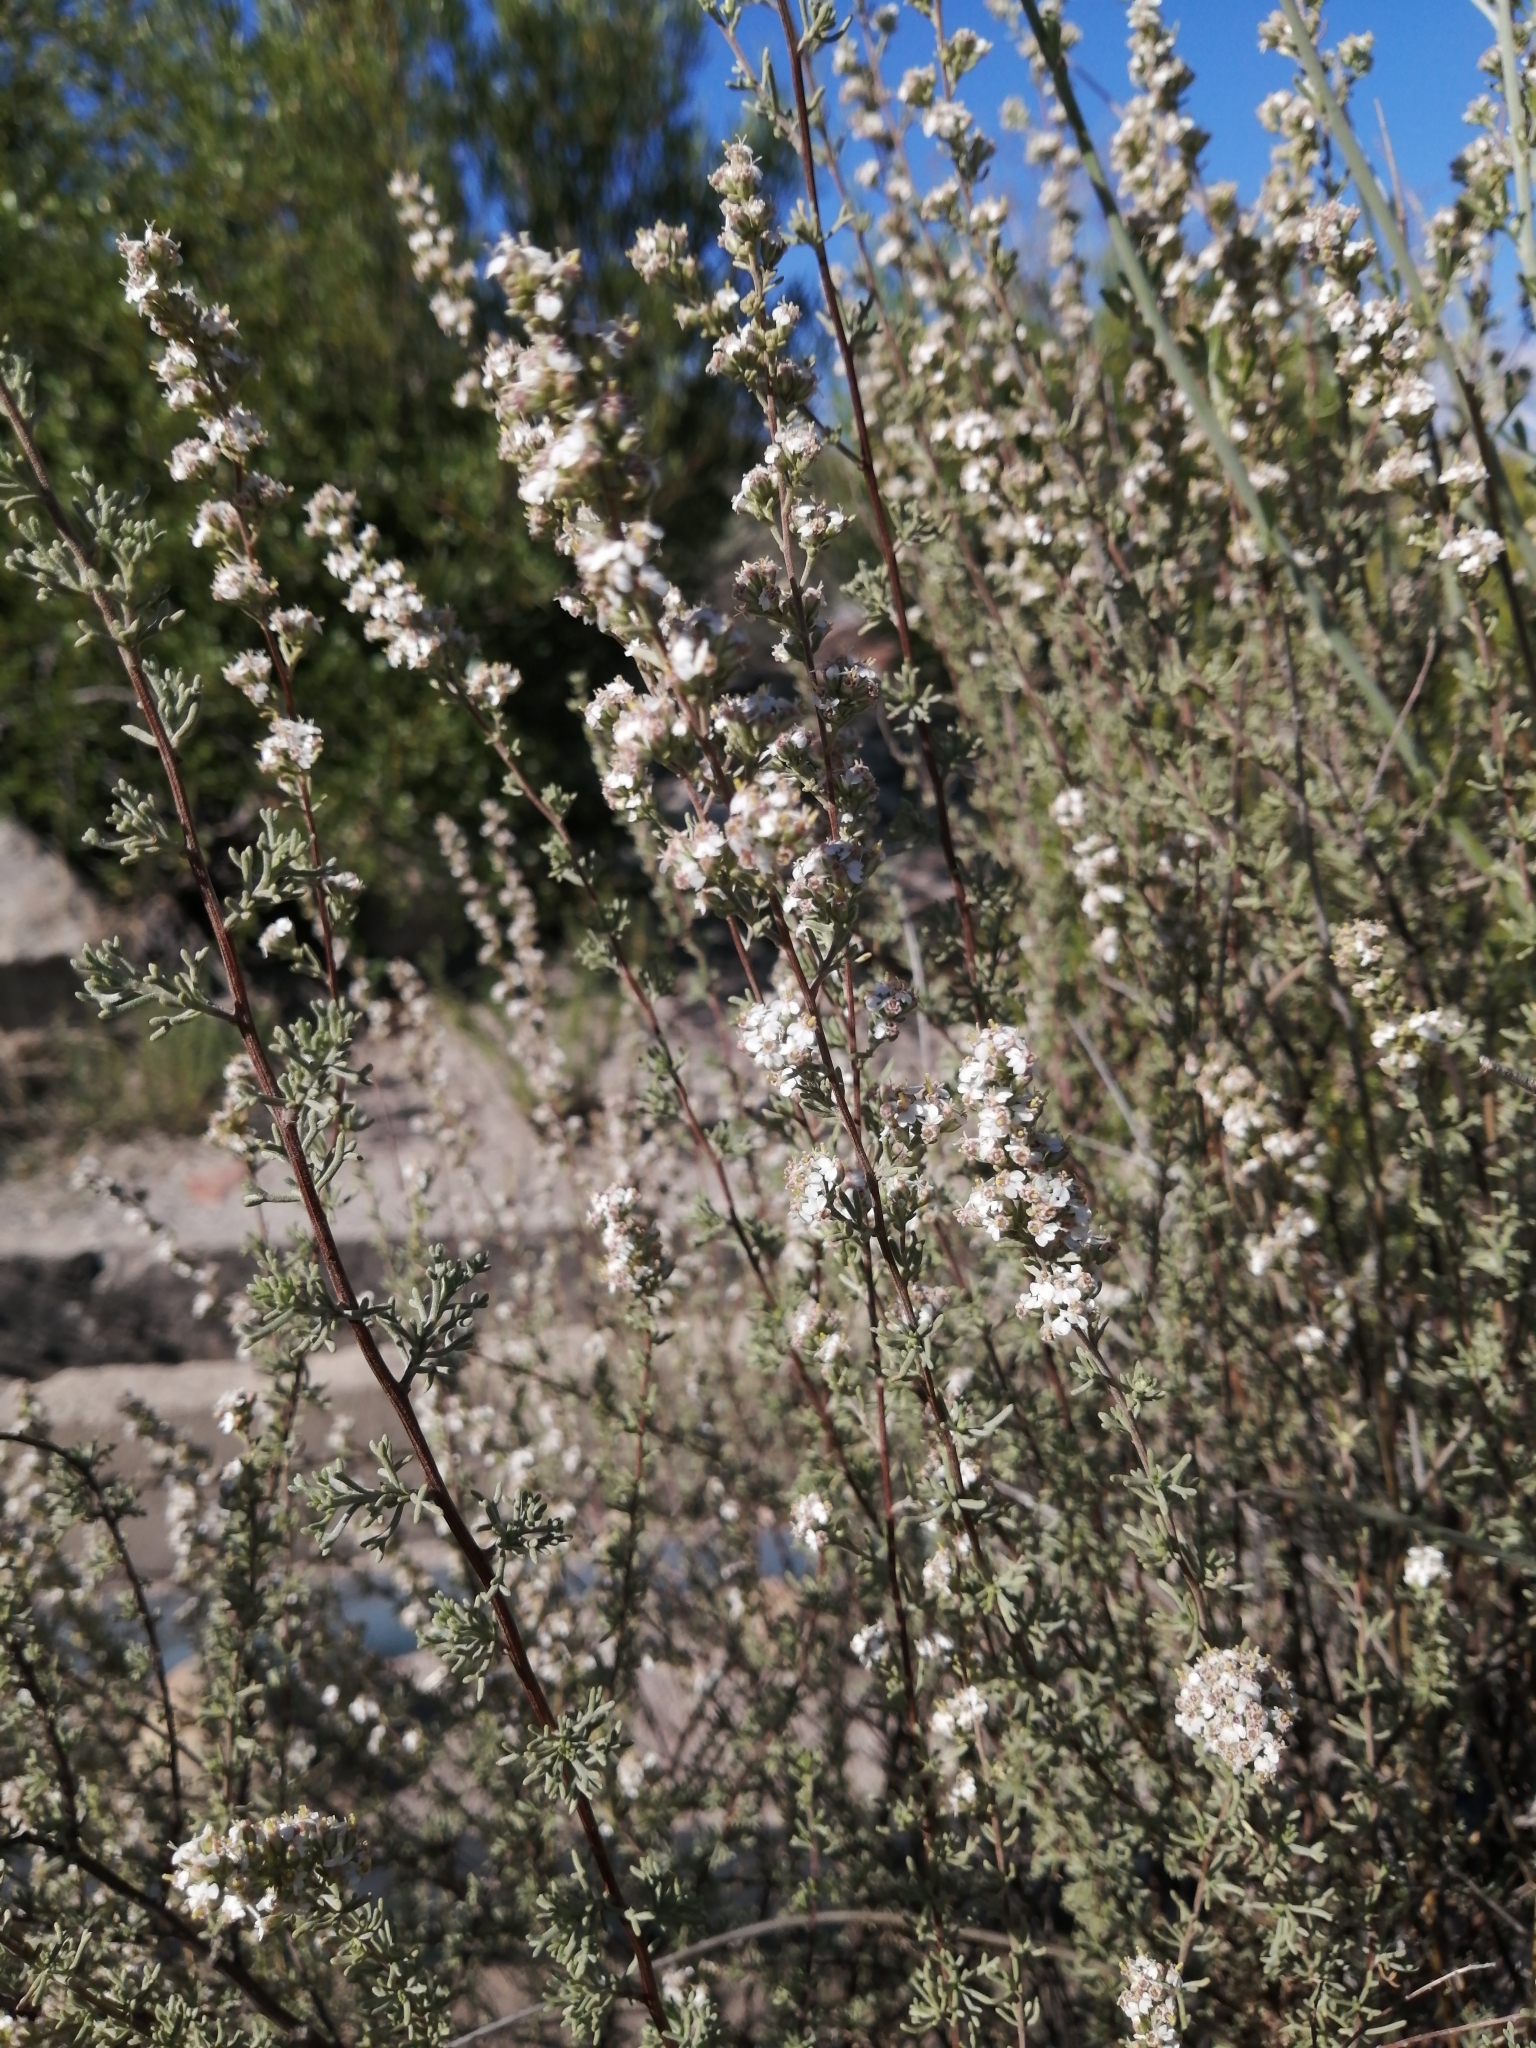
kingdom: Plantae
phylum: Tracheophyta
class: Magnoliopsida
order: Asterales
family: Asteraceae
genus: Eriocephalus
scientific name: Eriocephalus capitellatus
